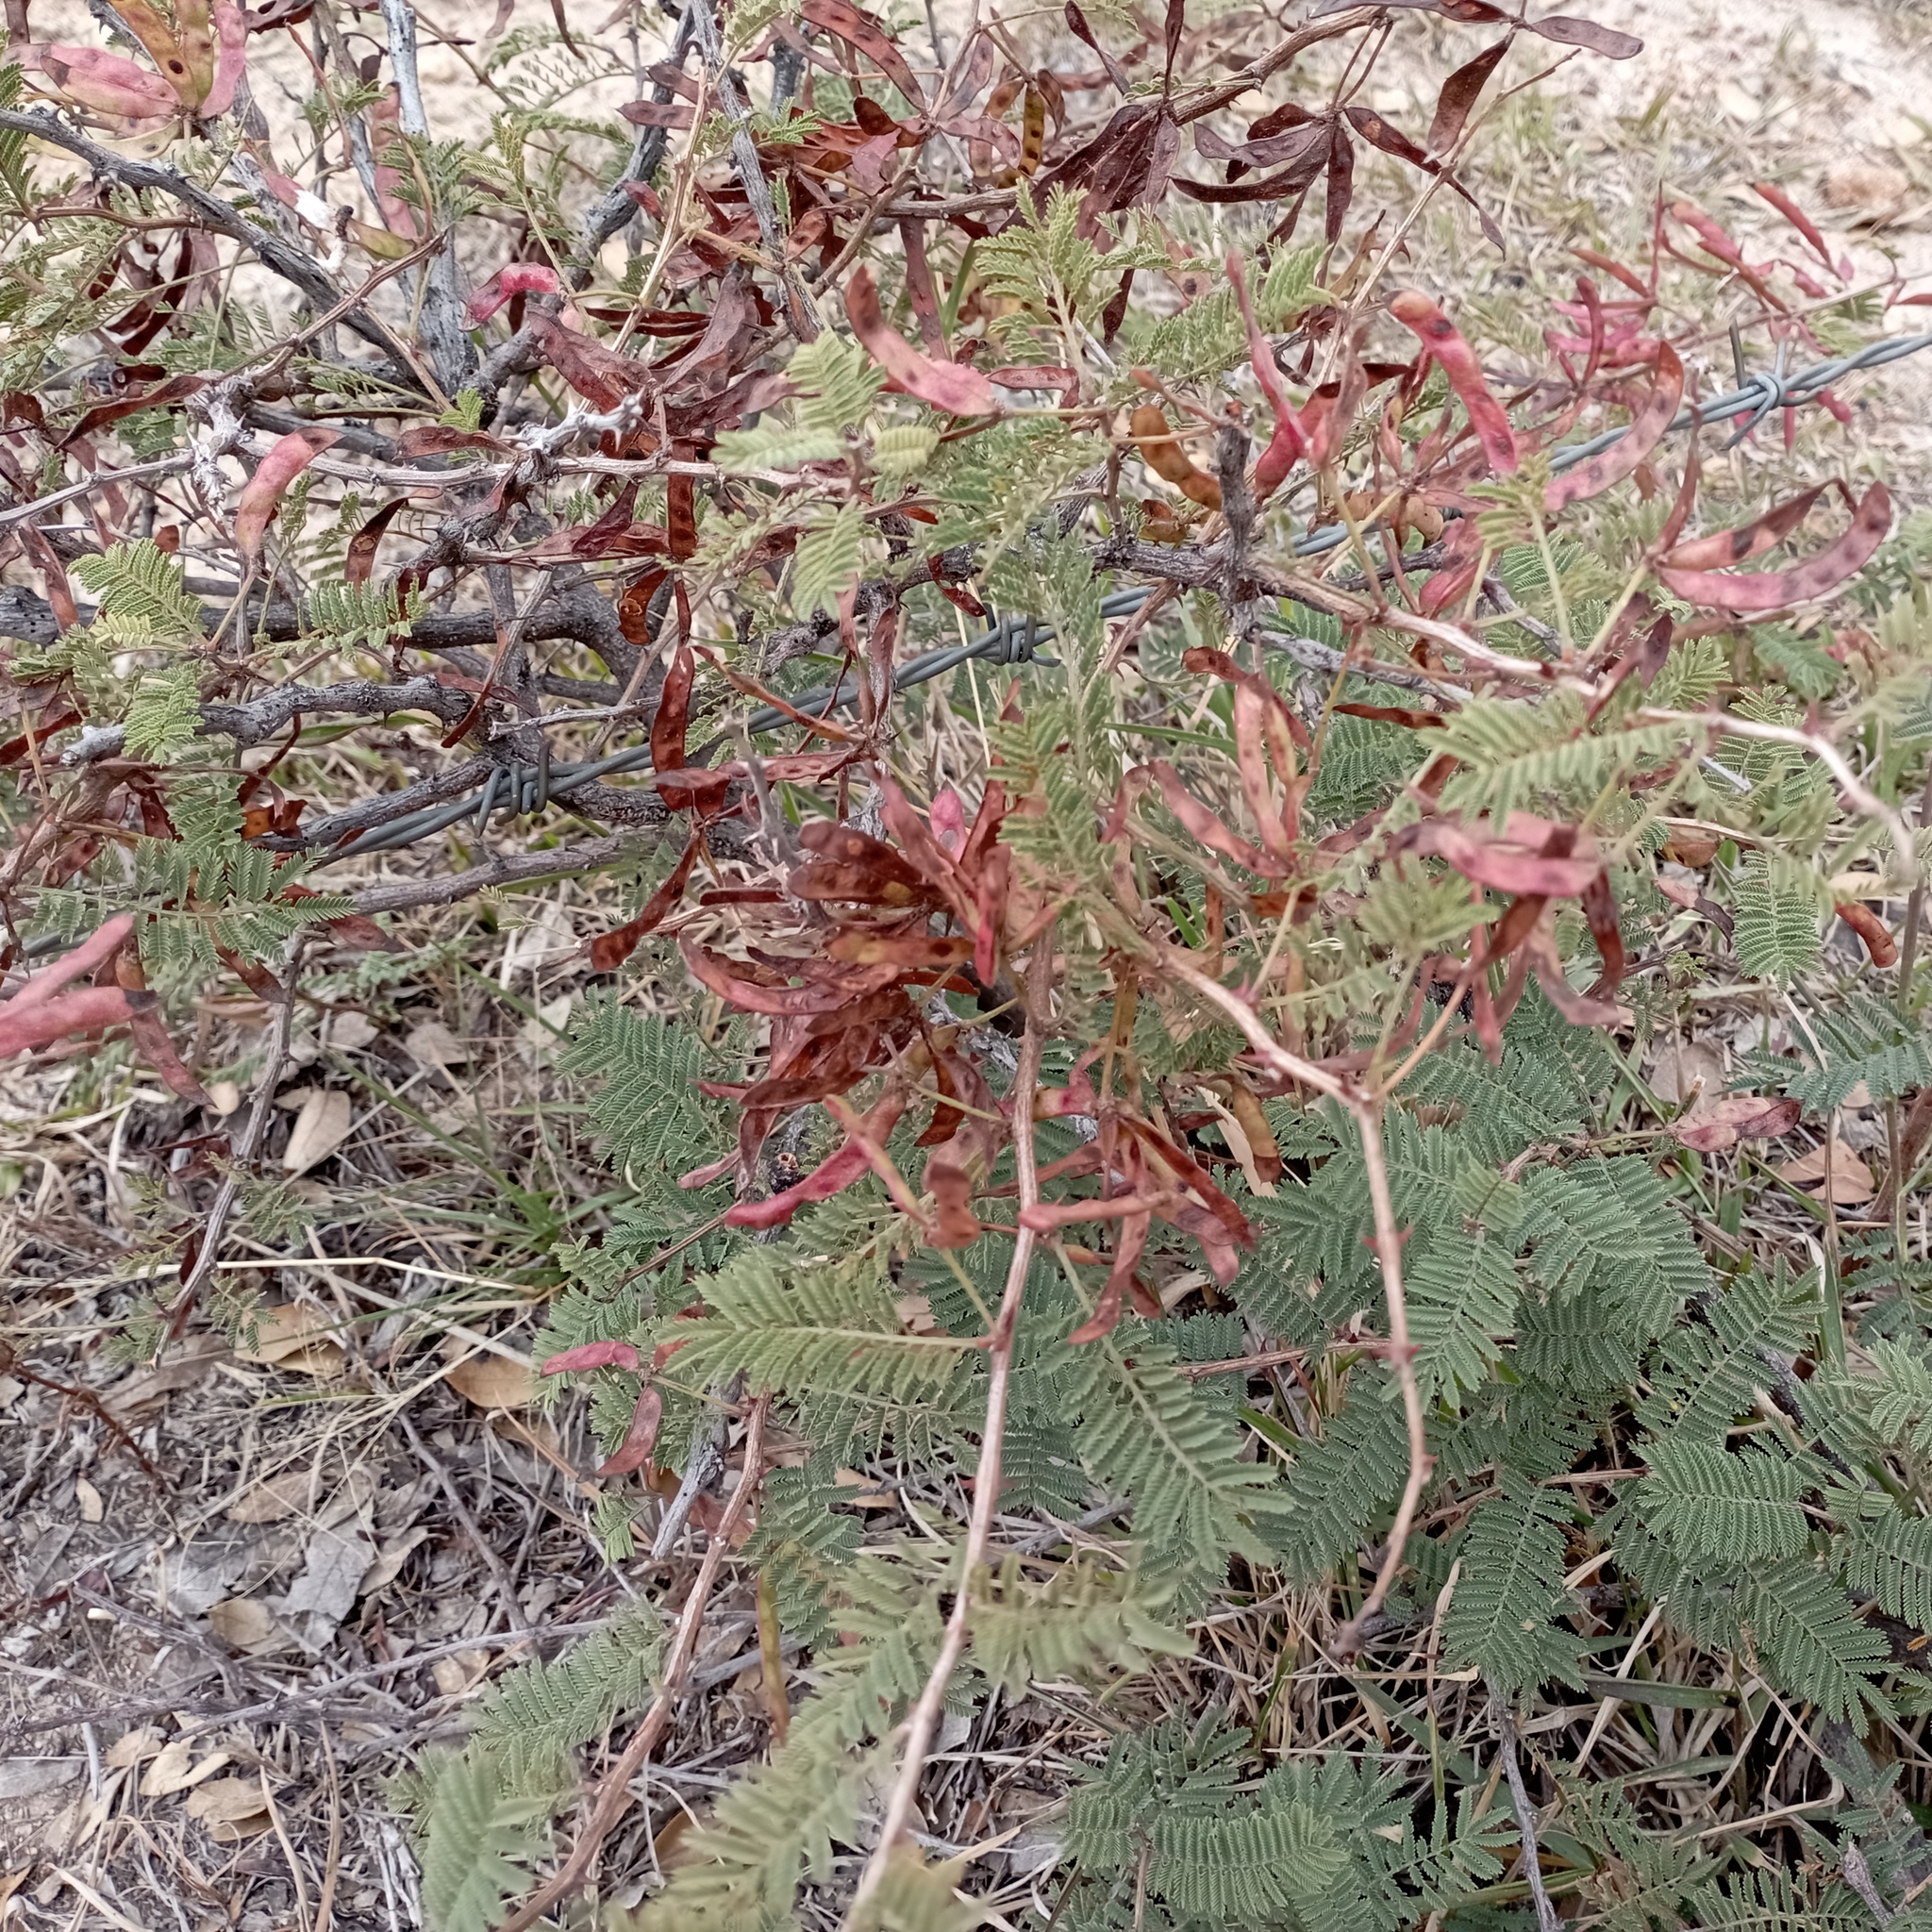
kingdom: Plantae
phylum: Tracheophyta
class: Magnoliopsida
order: Fabales
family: Fabaceae
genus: Mimosa
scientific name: Mimosa aculeaticarpa
